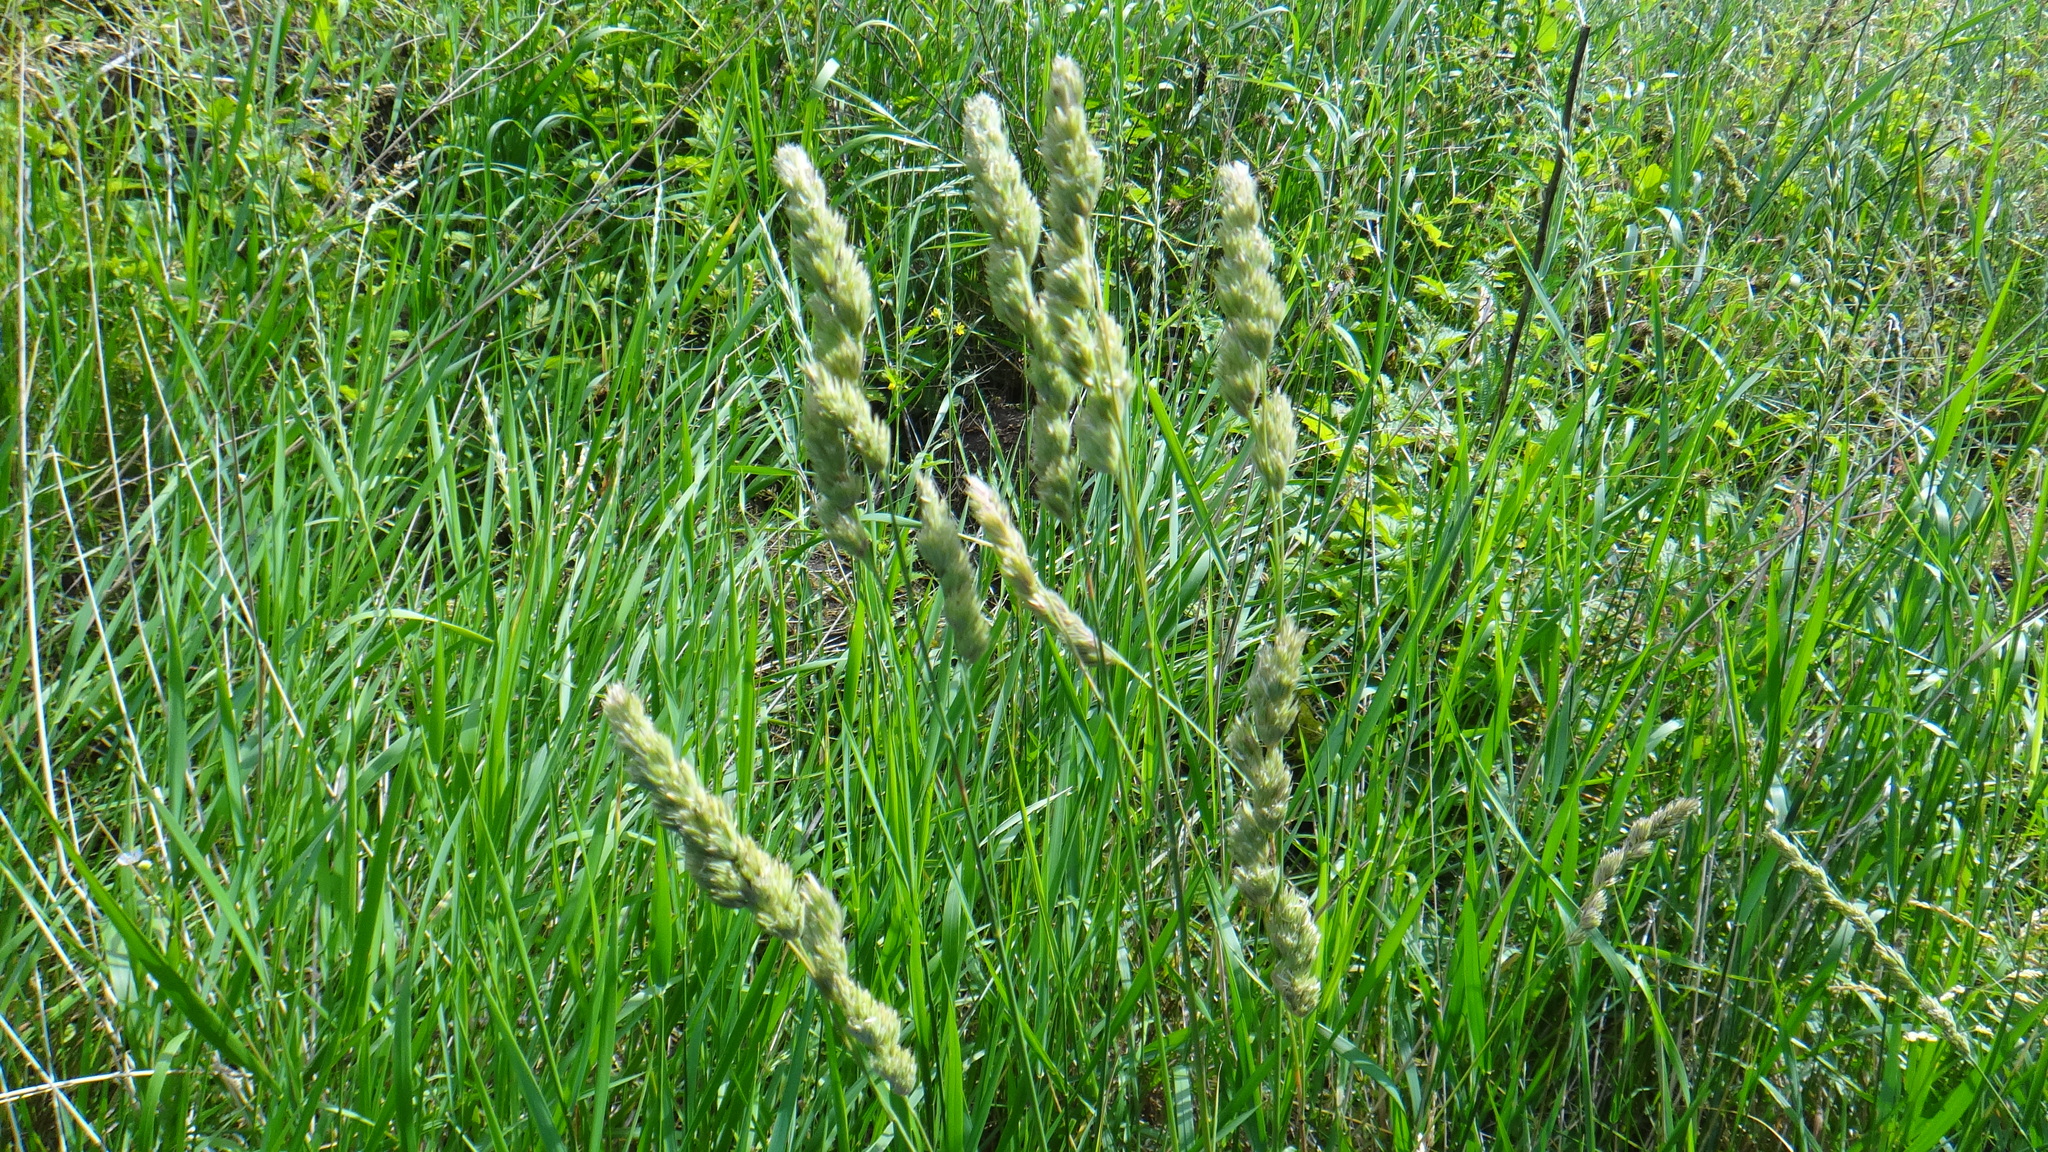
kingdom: Plantae
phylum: Tracheophyta
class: Liliopsida
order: Poales
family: Poaceae
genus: Dactylis
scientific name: Dactylis glomerata
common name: Orchardgrass
